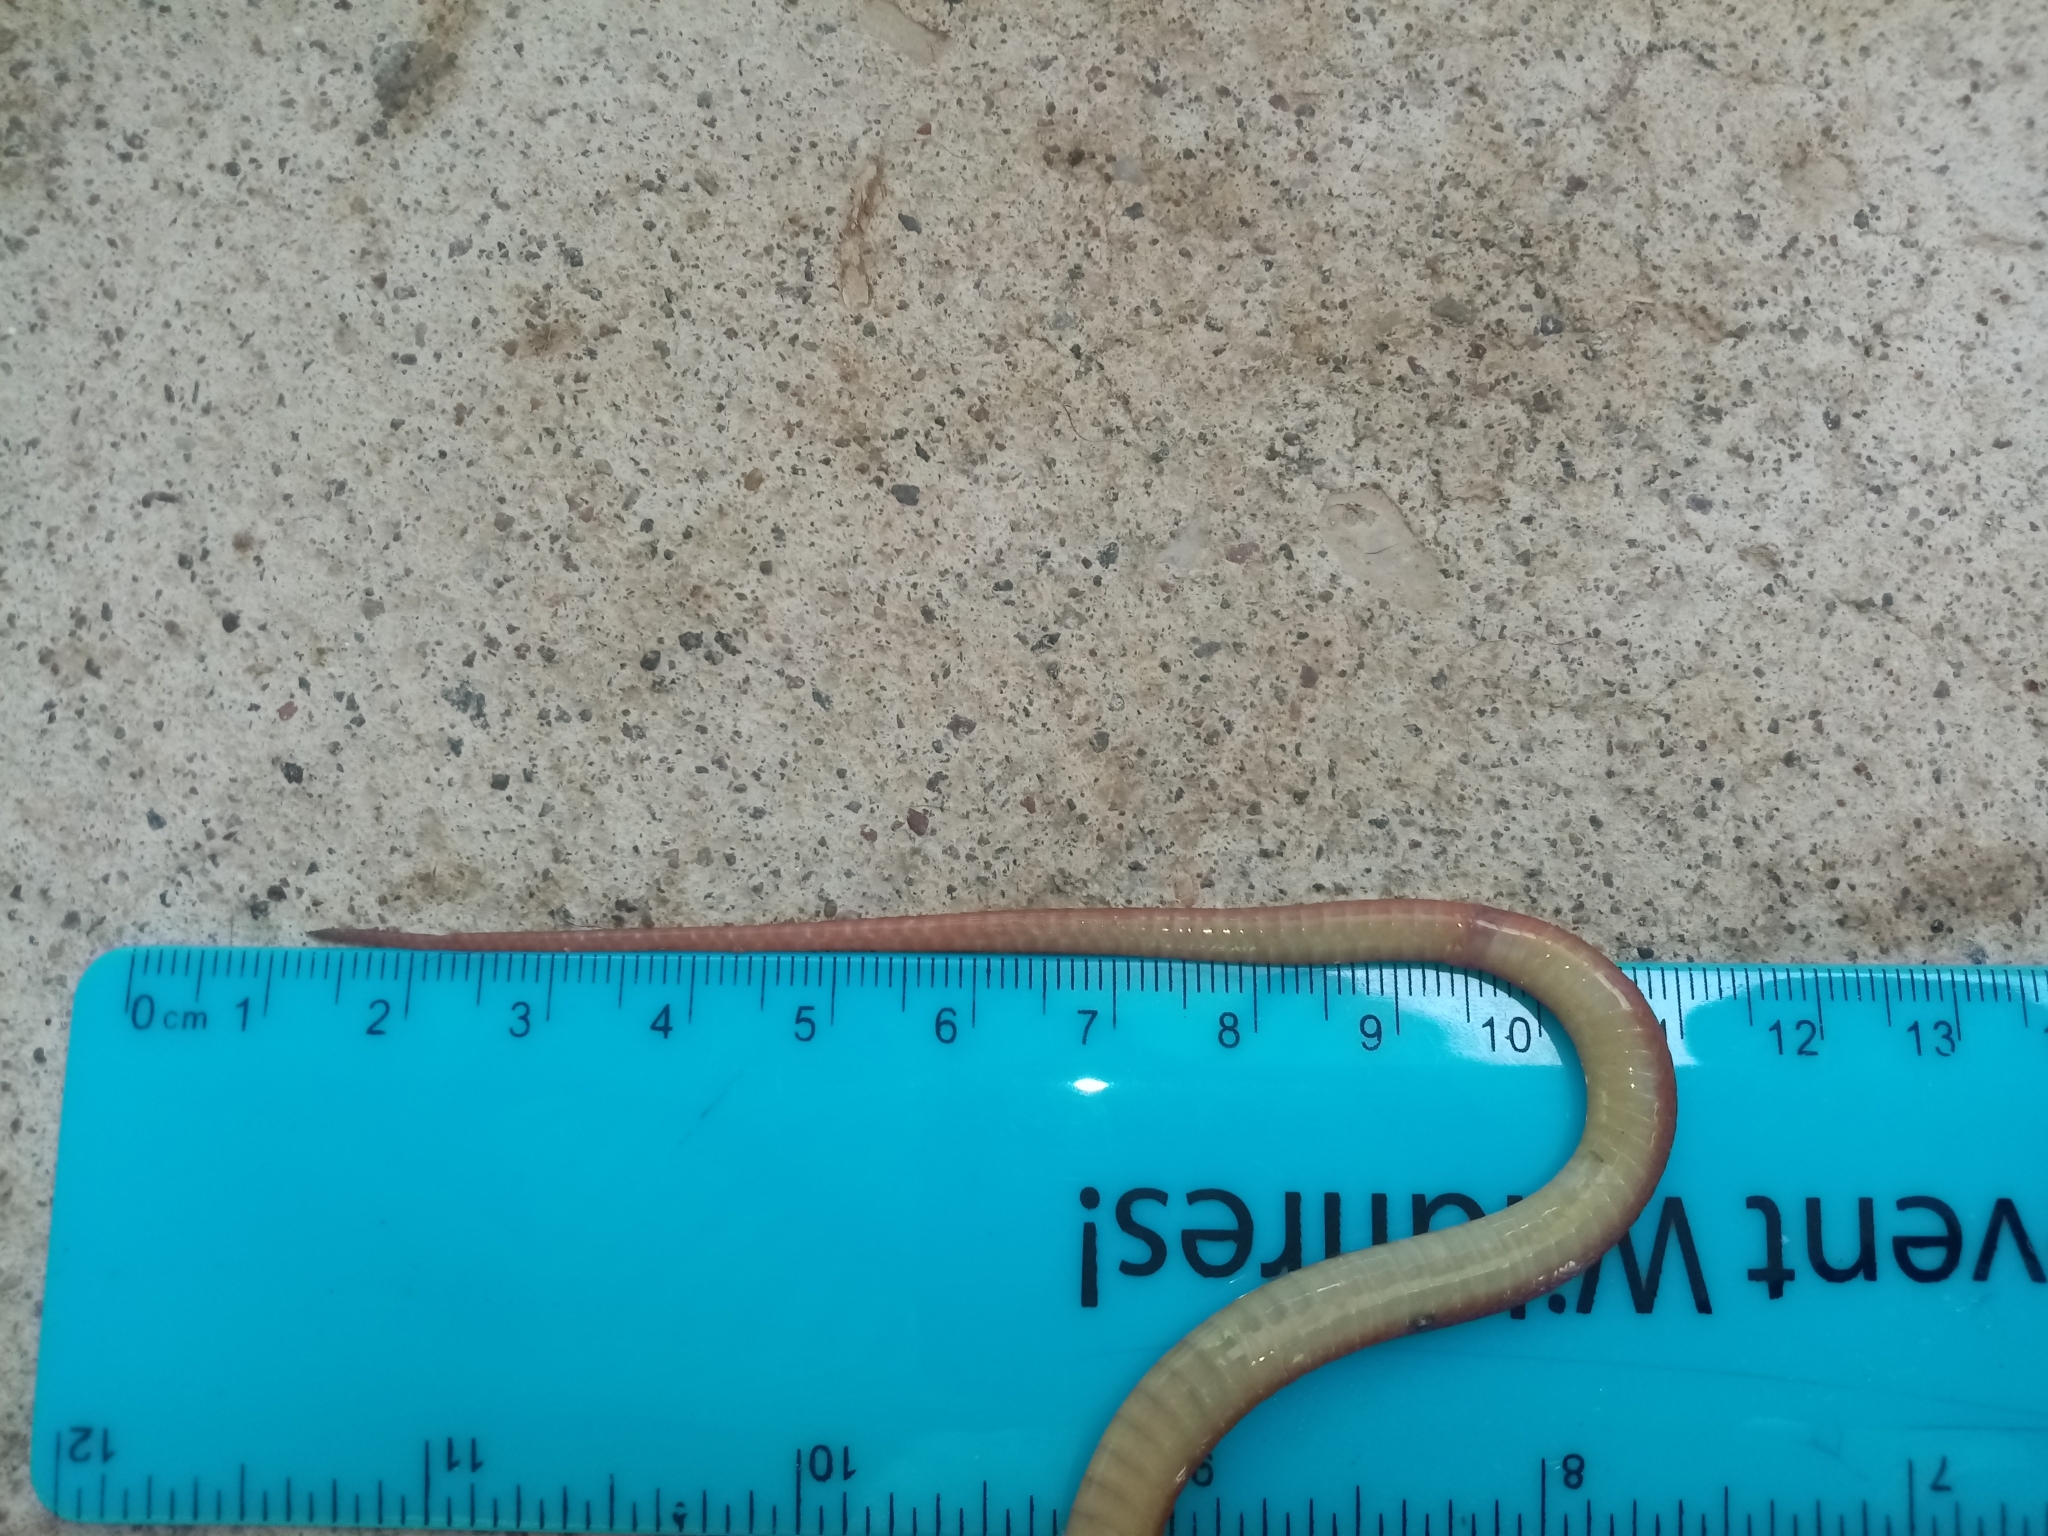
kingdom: Animalia
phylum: Chordata
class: Squamata
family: Colubridae
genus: Ninia
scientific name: Ninia sebae
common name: Redback coffee snake
